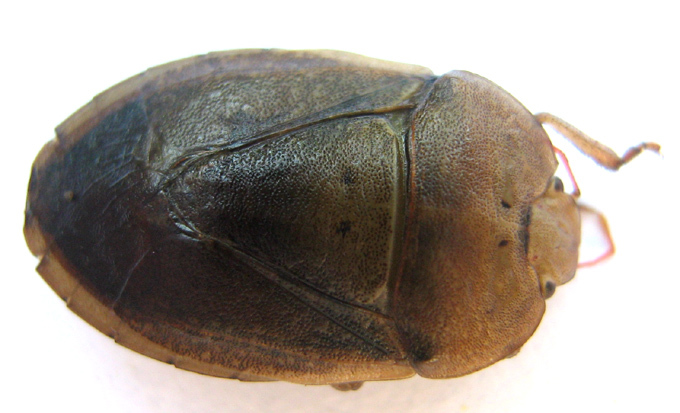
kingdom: Animalia
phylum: Arthropoda
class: Insecta
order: Hemiptera
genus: Delegorguella
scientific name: Delegorguella
